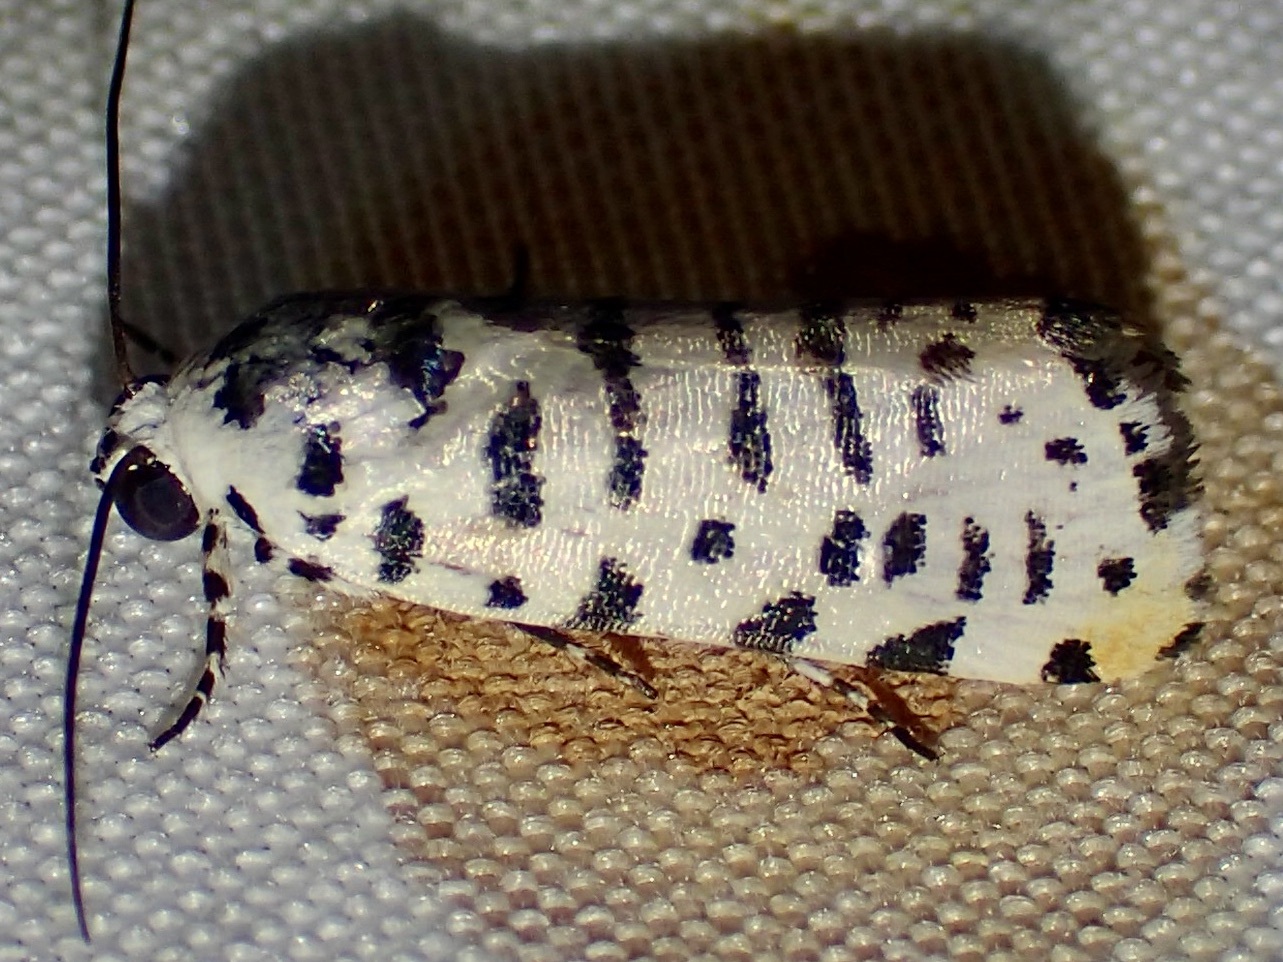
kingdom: Animalia
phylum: Arthropoda
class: Insecta
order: Lepidoptera
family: Noctuidae
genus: Acontia
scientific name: Acontia idella
